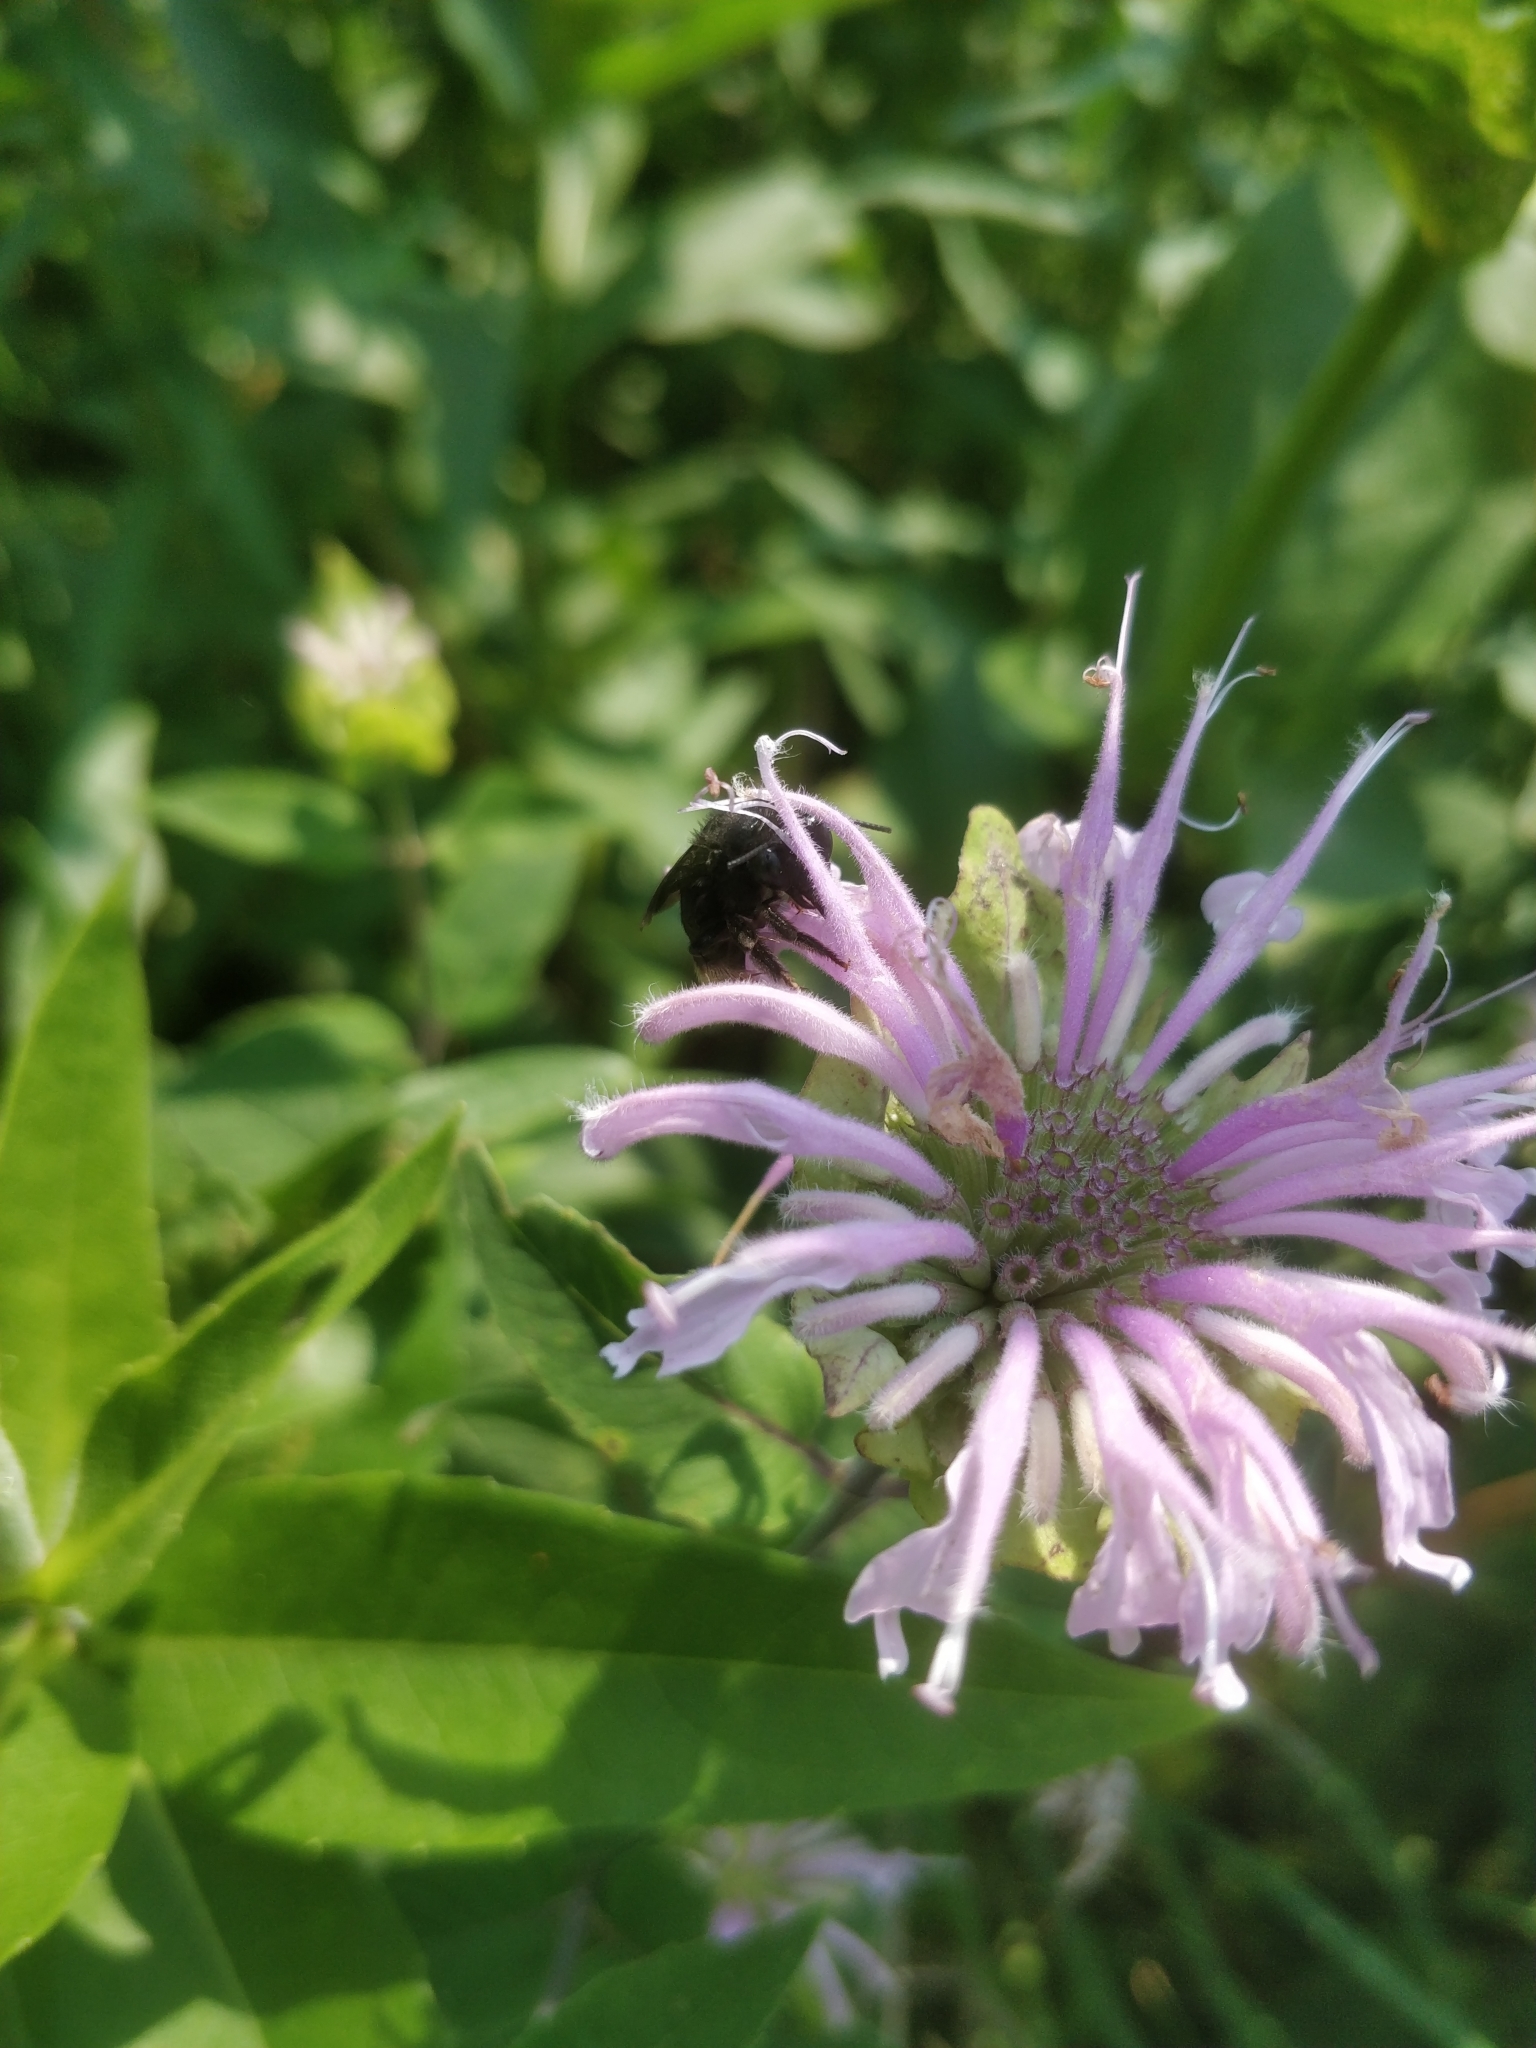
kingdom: Animalia
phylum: Arthropoda
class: Insecta
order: Hymenoptera
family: Apidae
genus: Melissodes
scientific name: Melissodes bimaculatus
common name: Two-spotted long-horned bee
